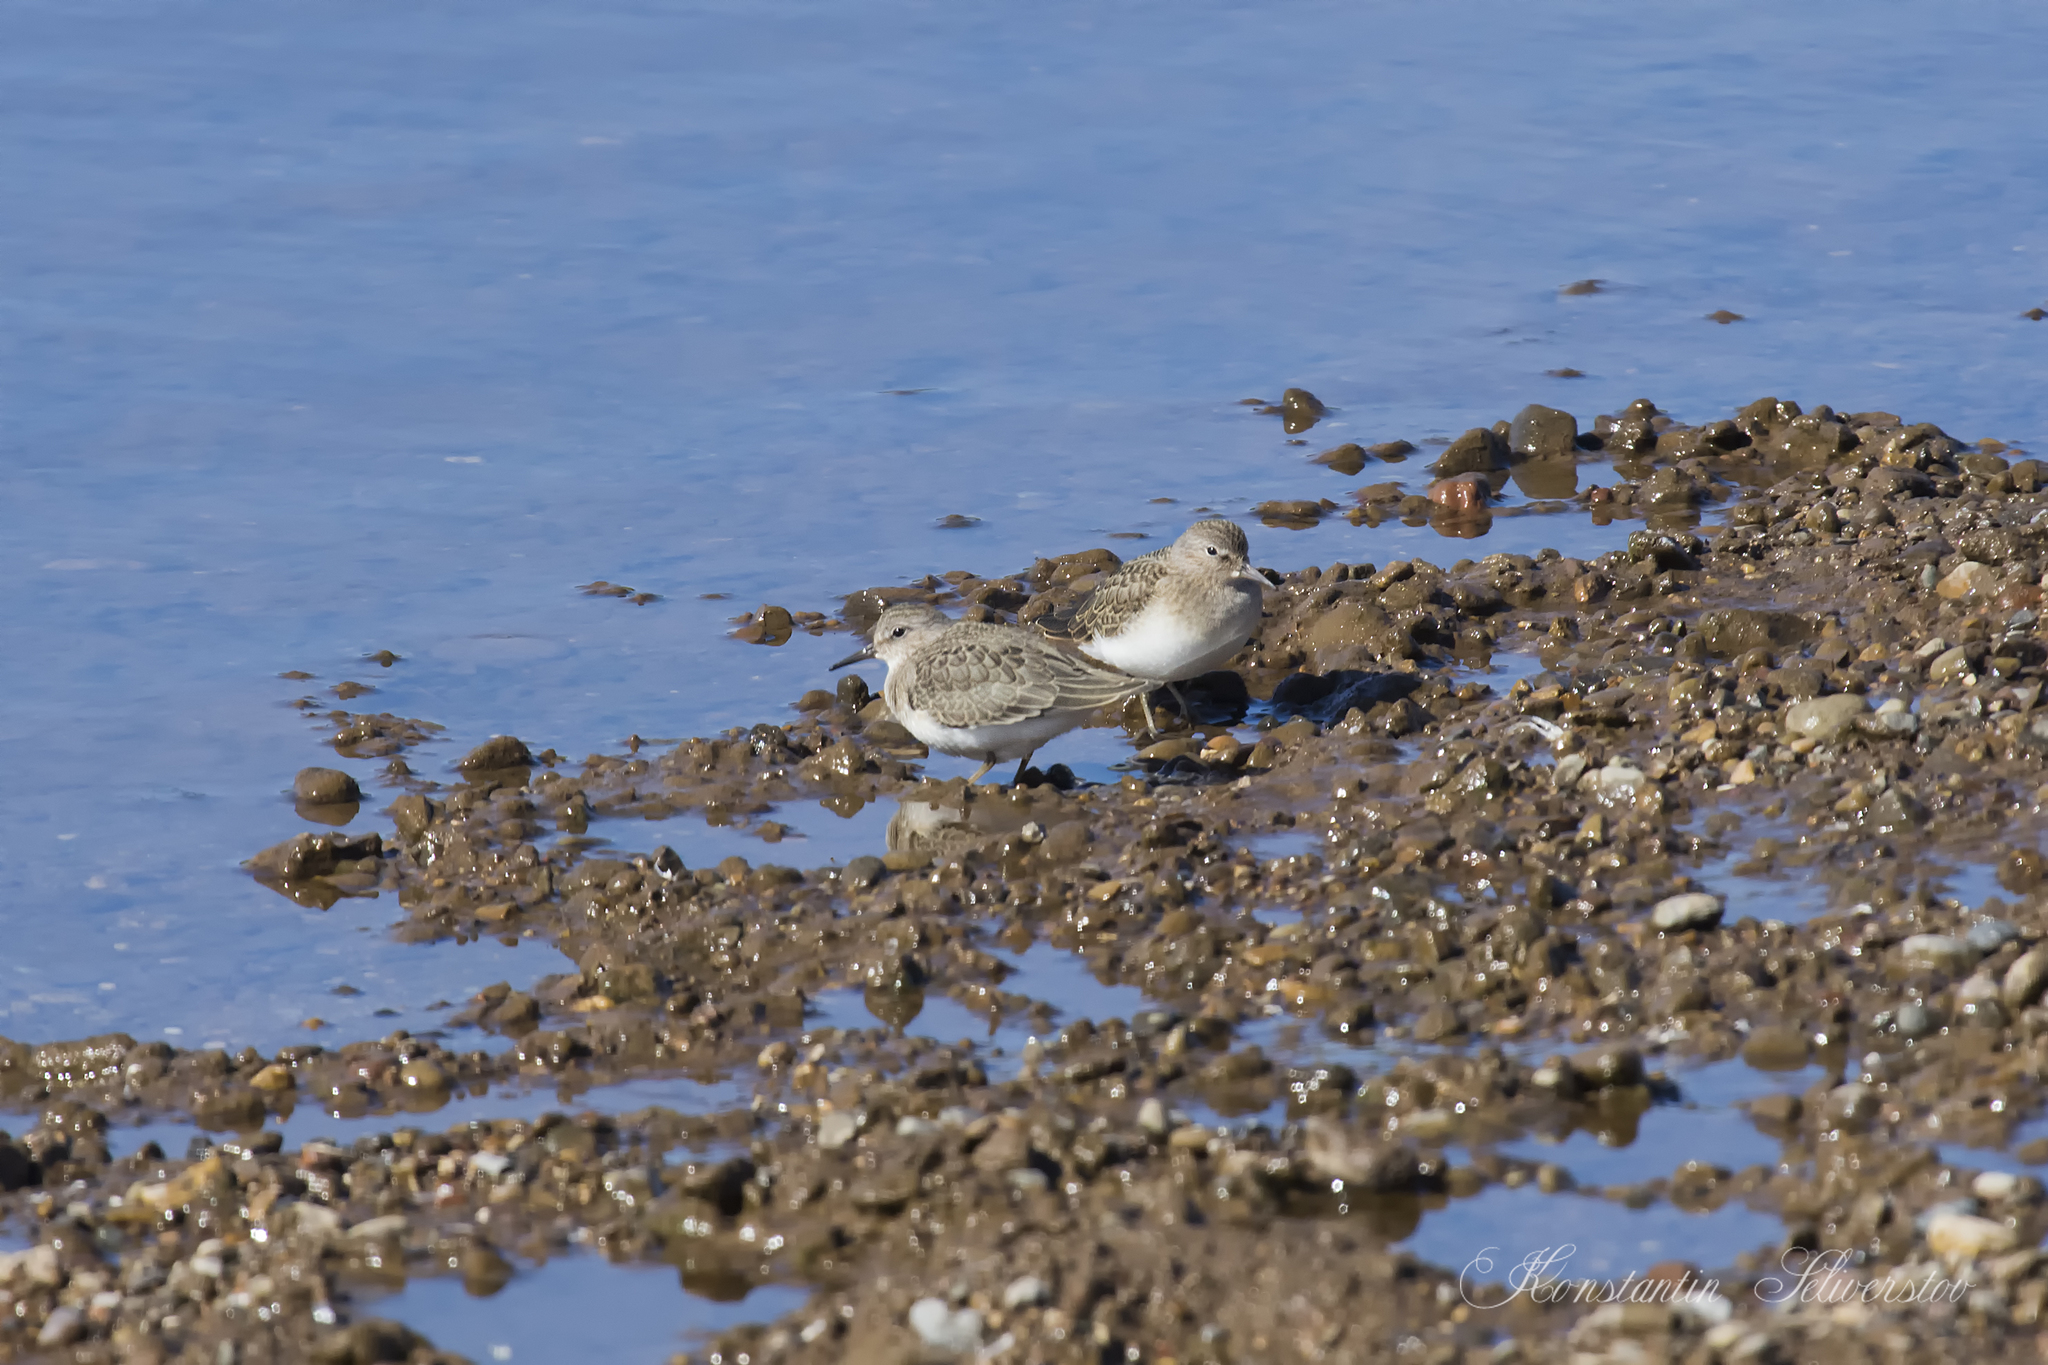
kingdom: Animalia
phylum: Chordata
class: Aves
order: Charadriiformes
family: Scolopacidae
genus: Calidris
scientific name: Calidris temminckii
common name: Temminck's stint
